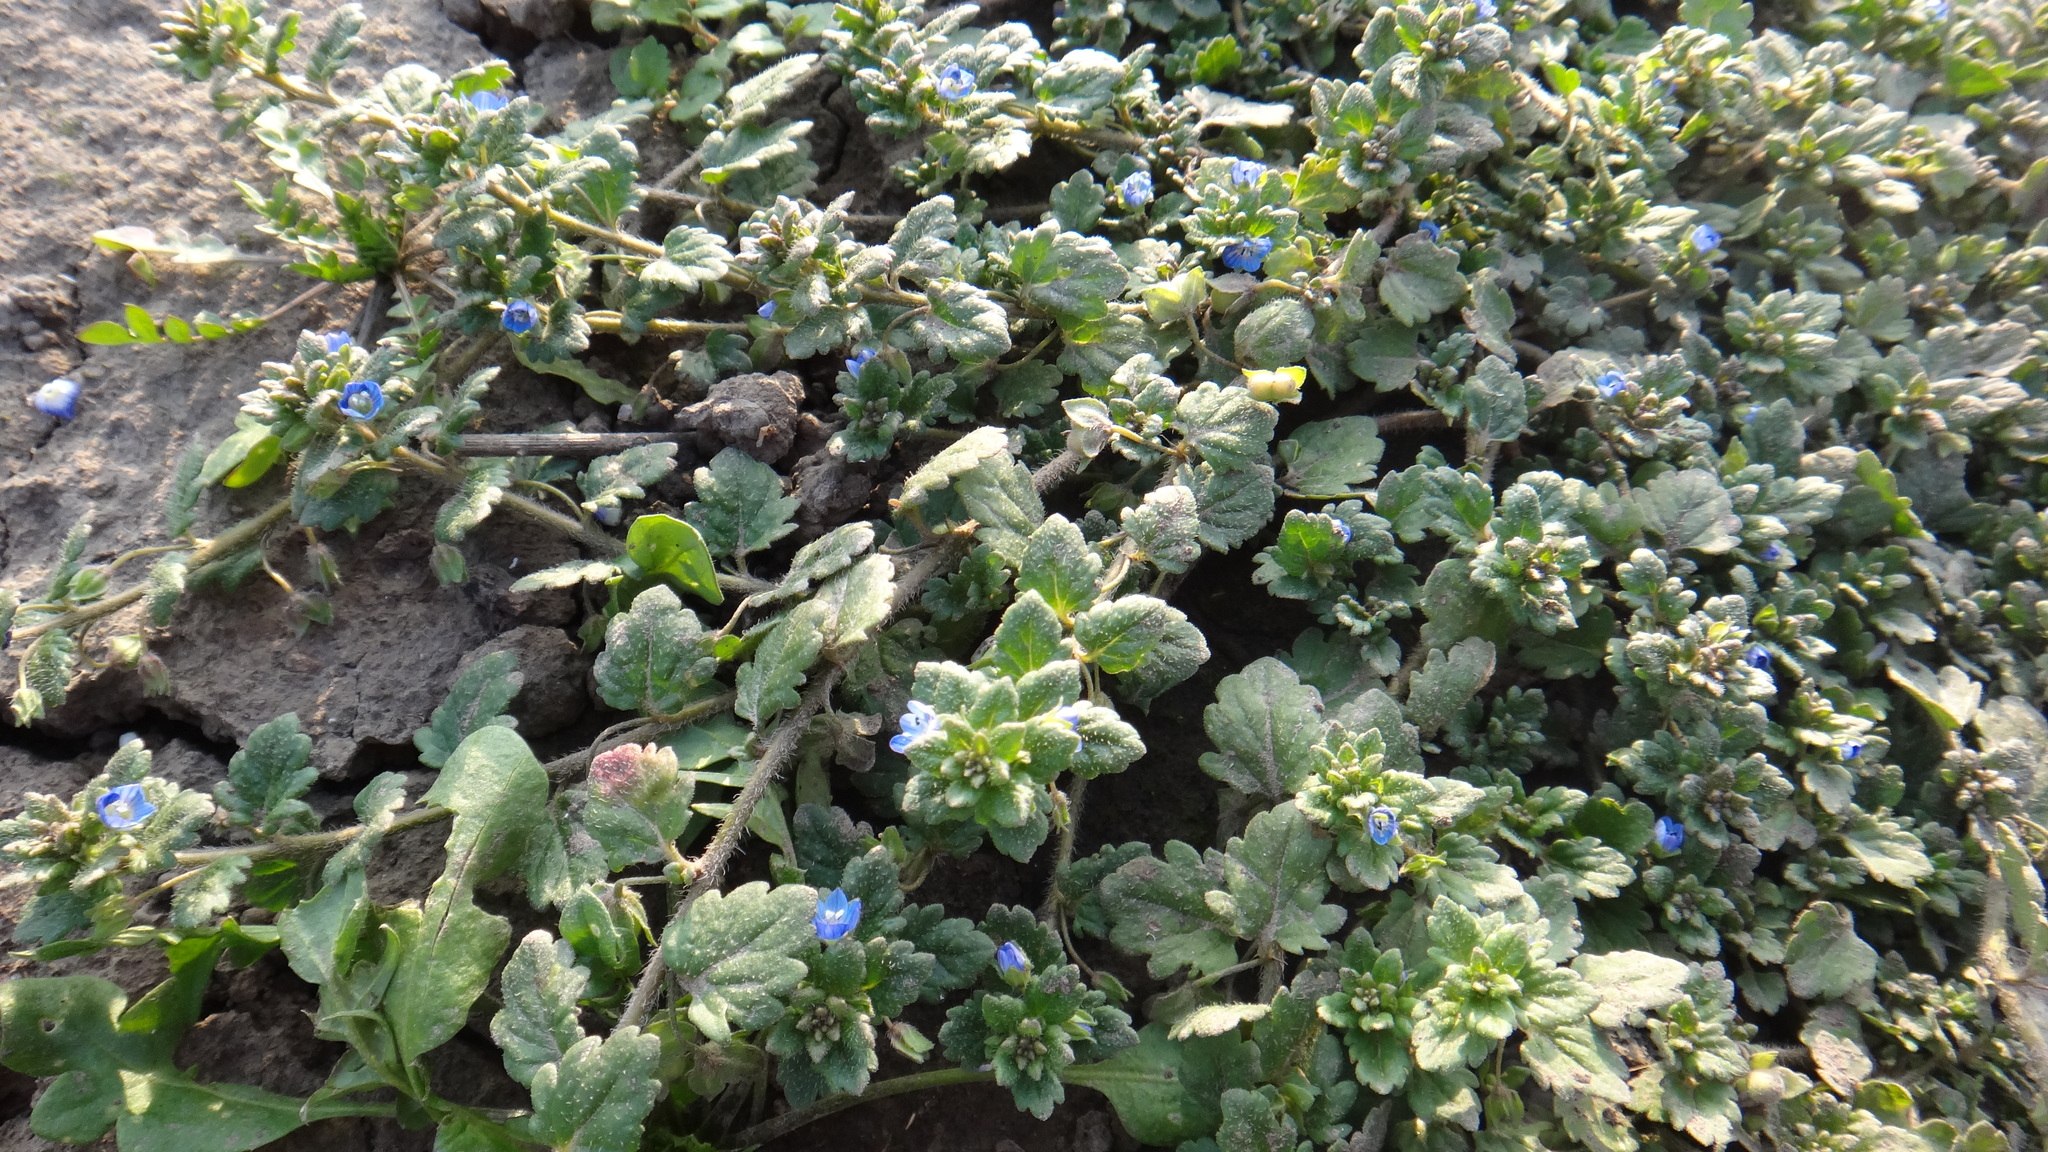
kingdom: Plantae
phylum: Tracheophyta
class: Magnoliopsida
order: Lamiales
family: Plantaginaceae
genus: Veronica
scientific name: Veronica polita
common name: Grey field-speedwell
